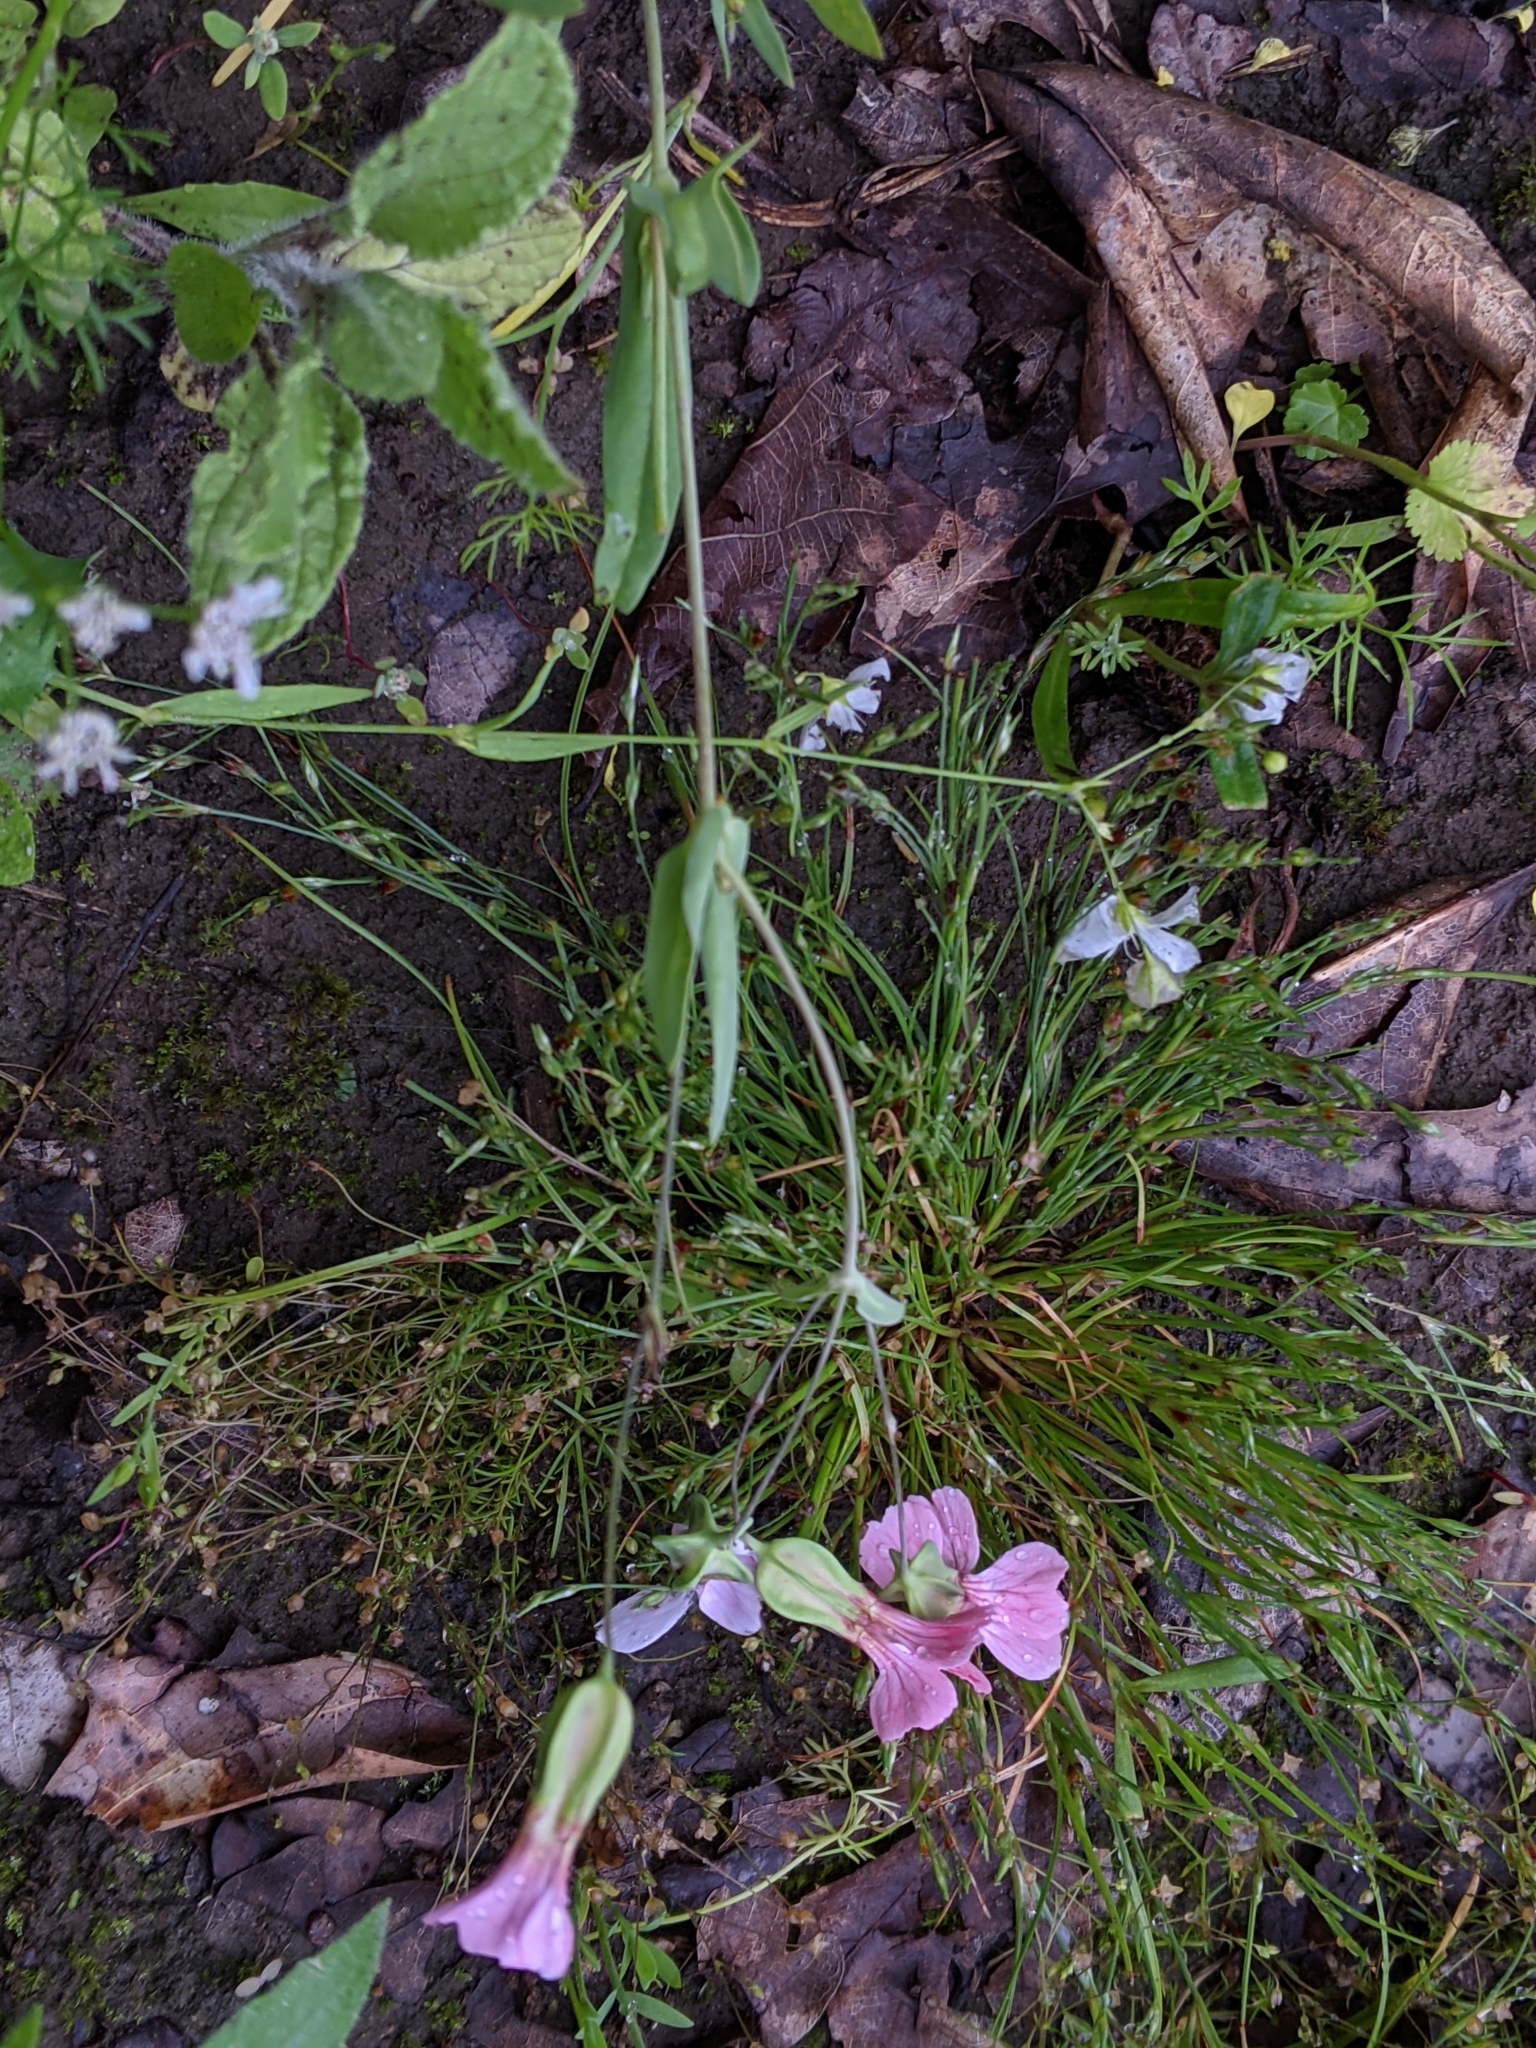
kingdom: Plantae
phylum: Tracheophyta
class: Magnoliopsida
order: Caryophyllales
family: Caryophyllaceae
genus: Gypsophila
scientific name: Gypsophila vaccaria
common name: Cow soapwort
